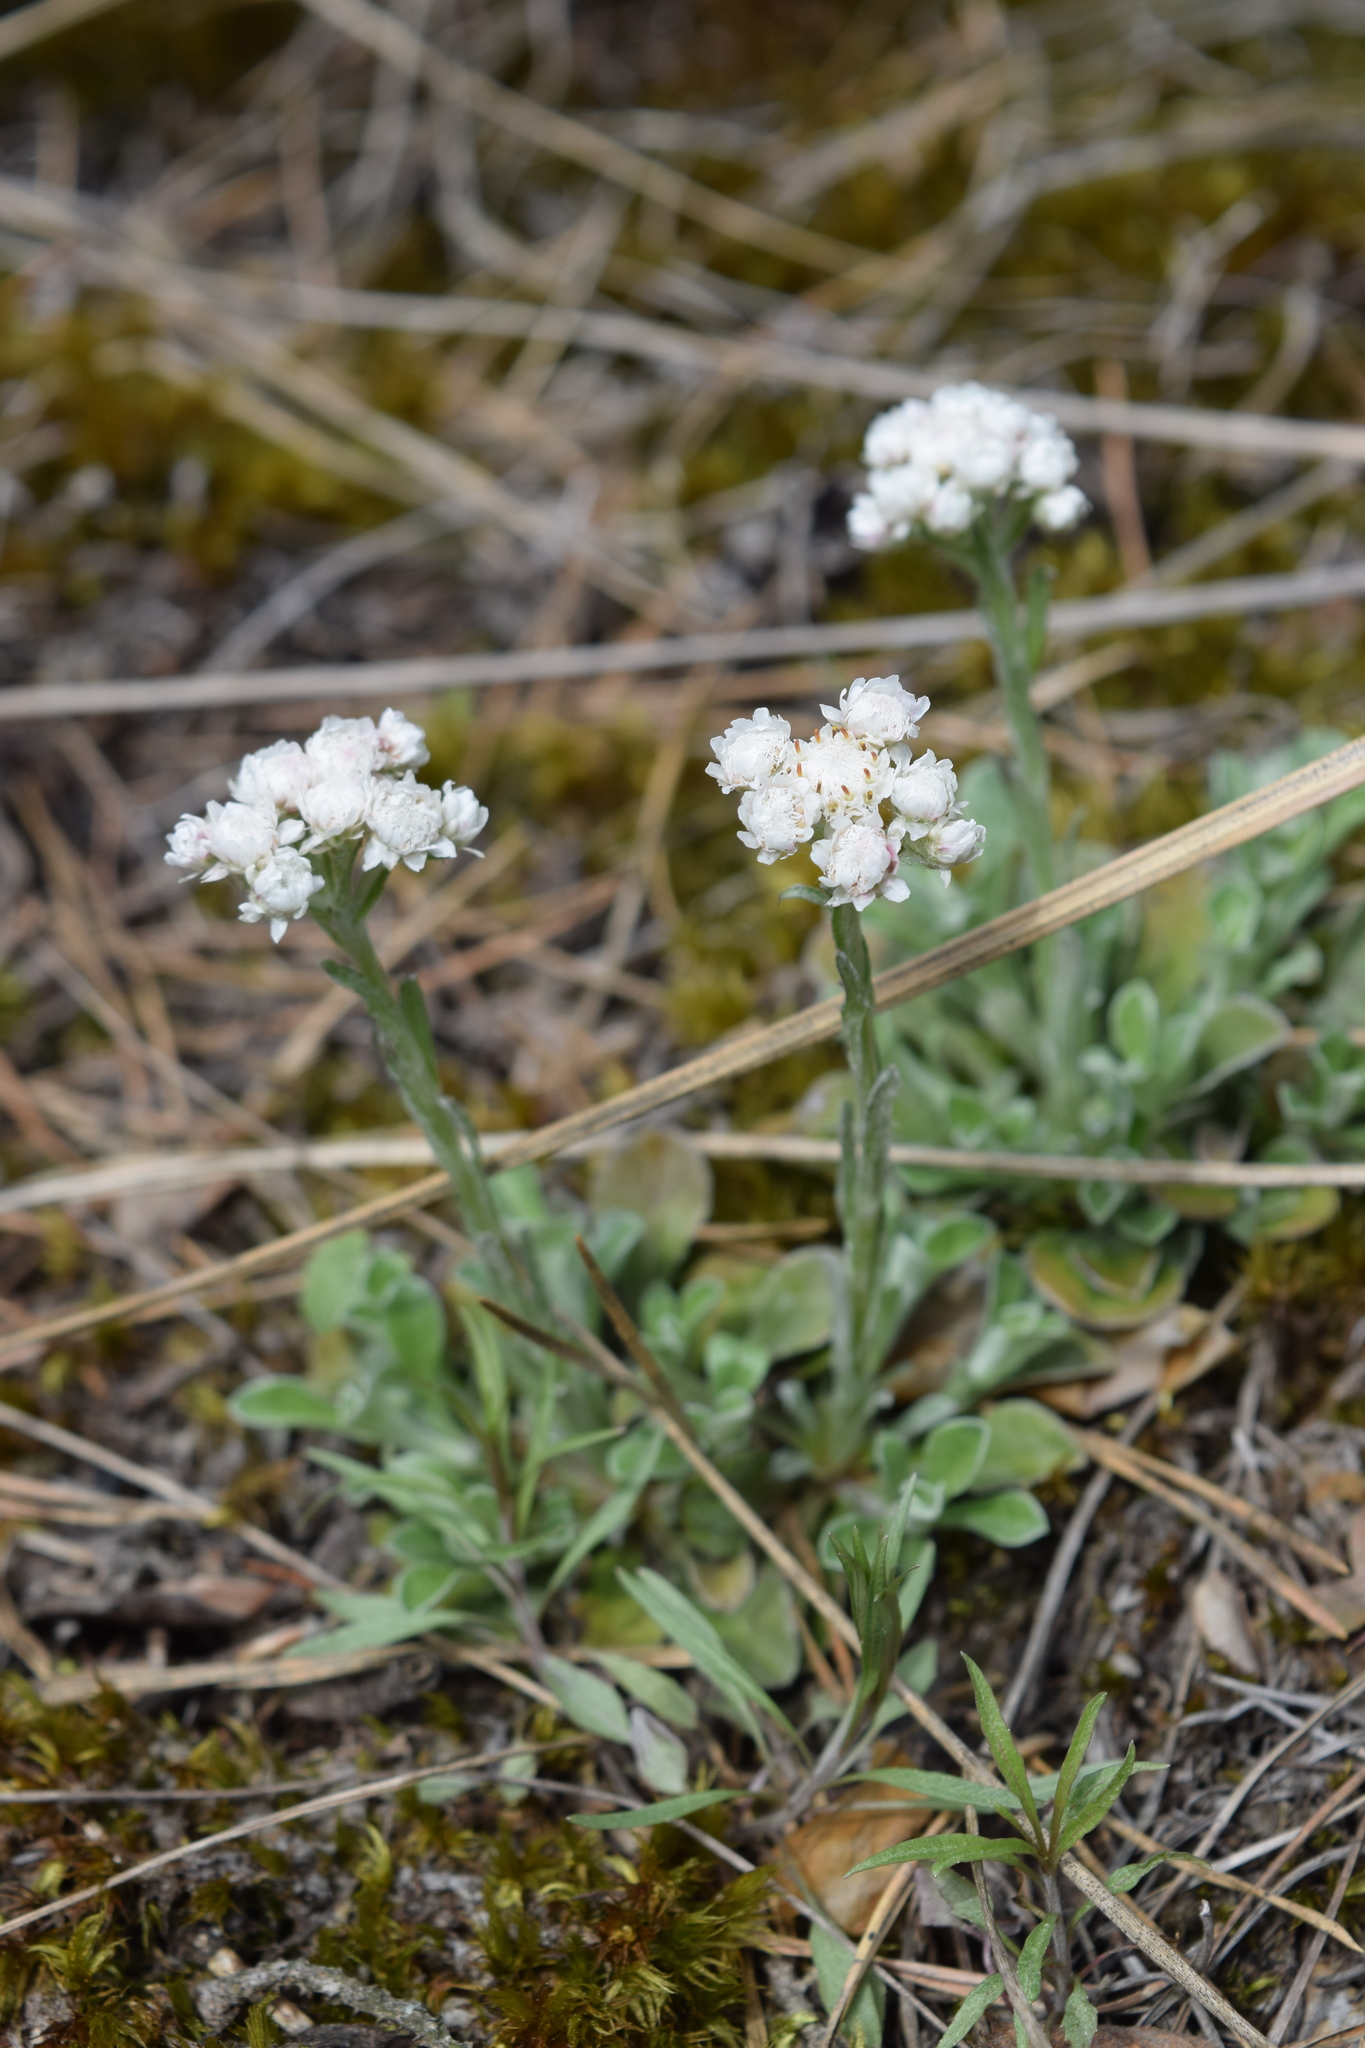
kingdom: Plantae
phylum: Tracheophyta
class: Magnoliopsida
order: Asterales
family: Asteraceae
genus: Antennaria
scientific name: Antennaria dioica
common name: Mountain everlasting
